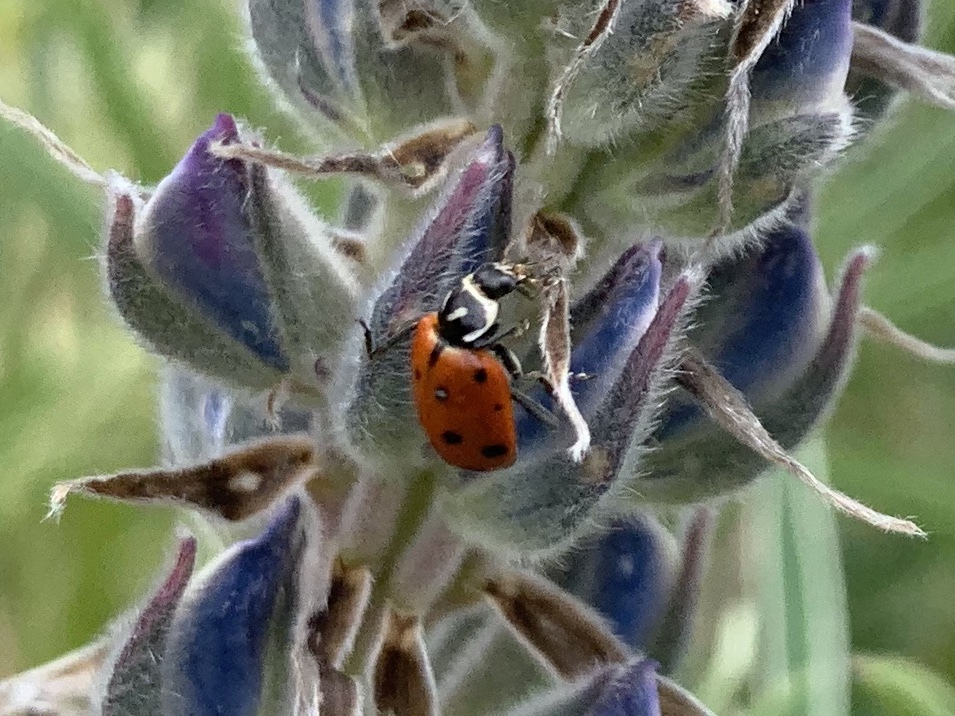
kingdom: Animalia
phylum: Arthropoda
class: Insecta
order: Coleoptera
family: Coccinellidae
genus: Hippodamia
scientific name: Hippodamia convergens
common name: Convergent lady beetle
